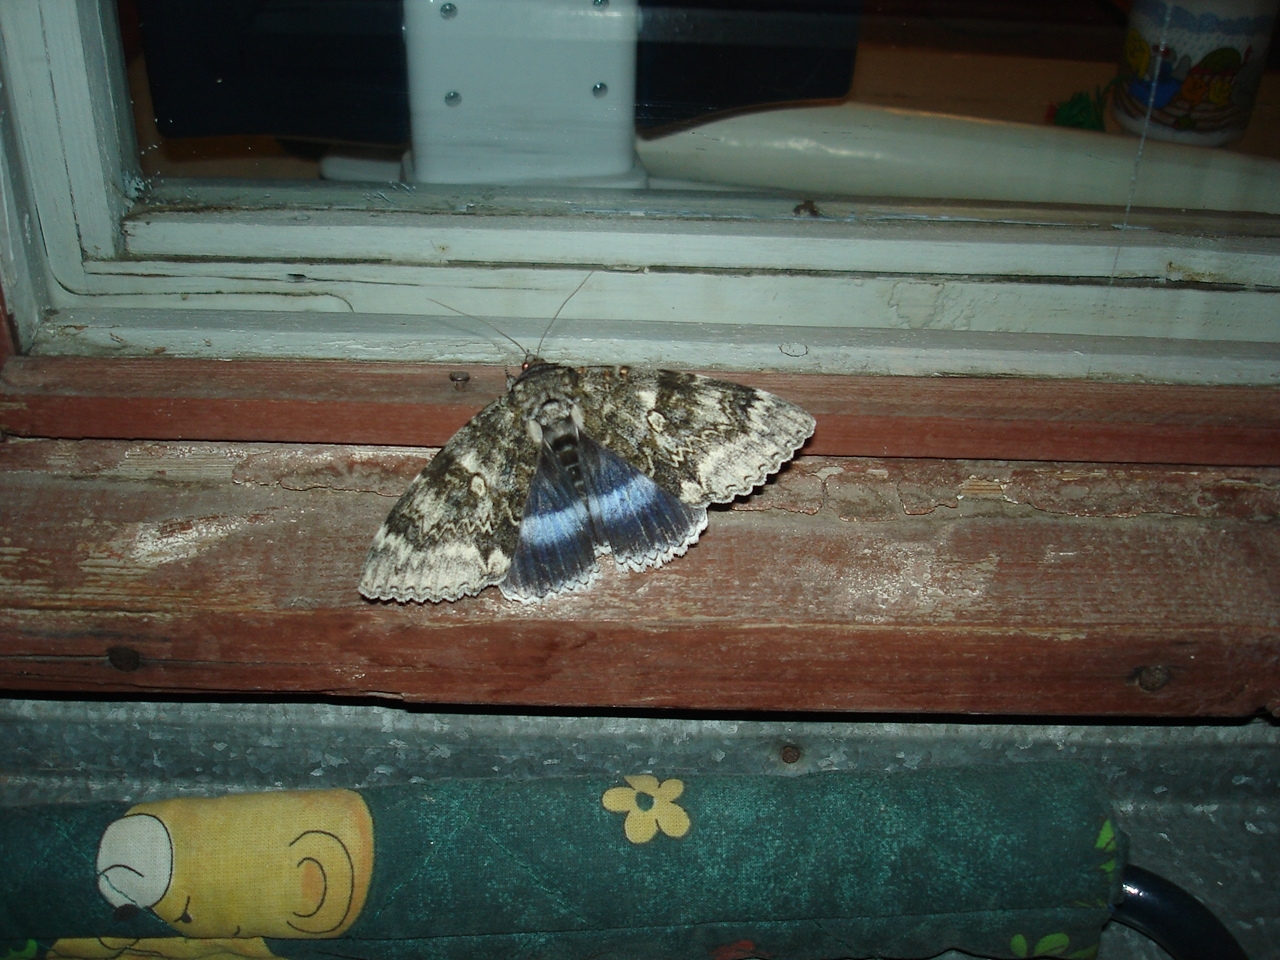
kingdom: Animalia
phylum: Arthropoda
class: Insecta
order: Lepidoptera
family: Erebidae
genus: Catocala
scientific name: Catocala fraxini
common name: Clifden nonpareil
